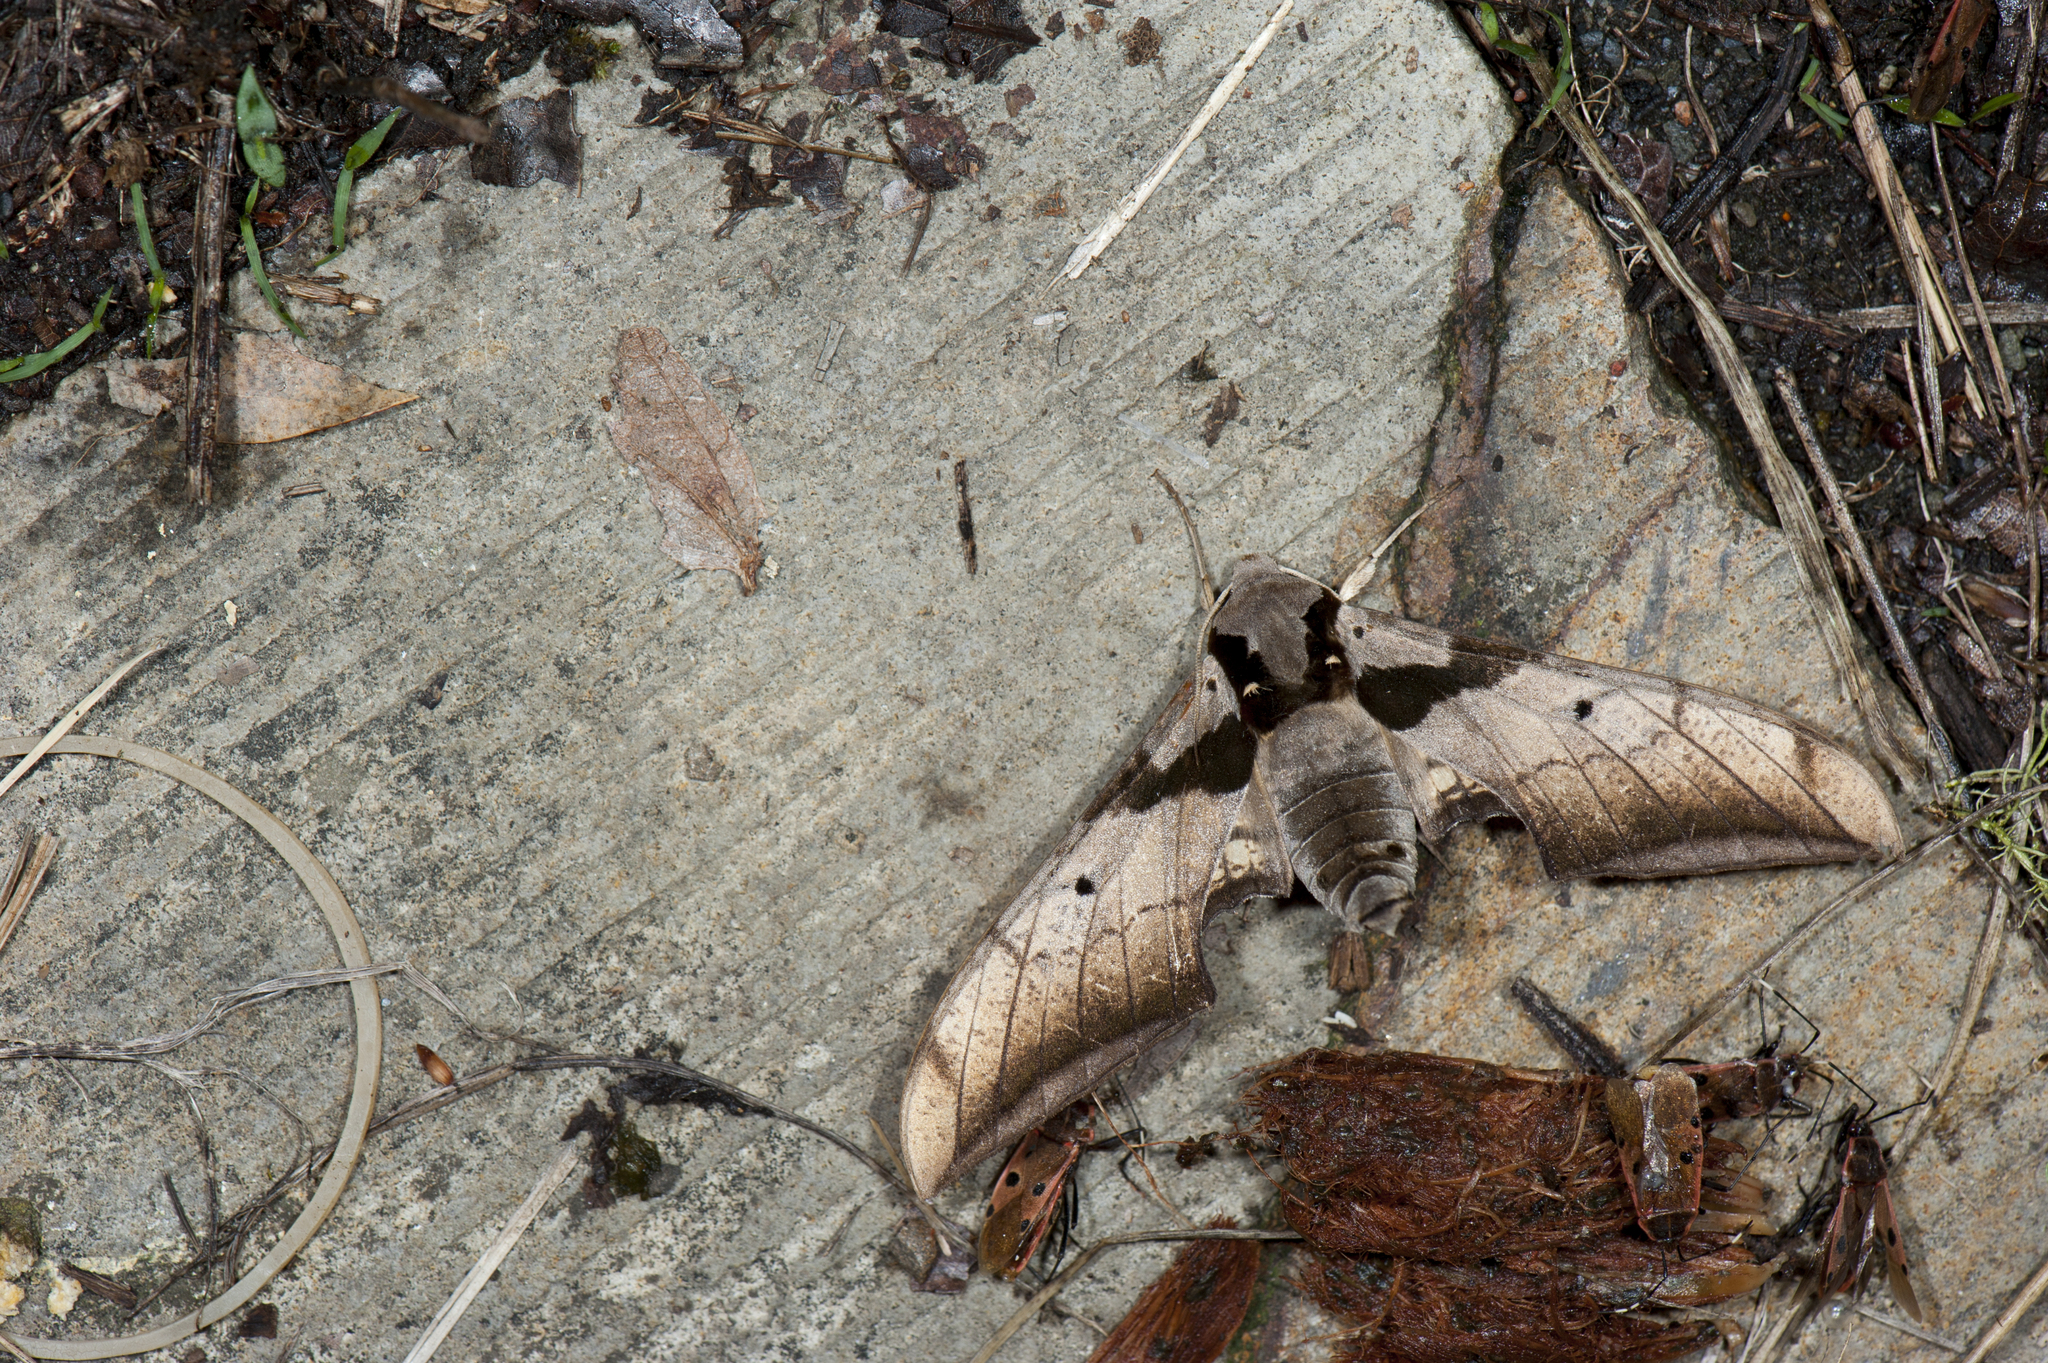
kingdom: Animalia
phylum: Arthropoda
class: Insecta
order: Lepidoptera
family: Sphingidae
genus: Ambulyx
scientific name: Ambulyx japonica
